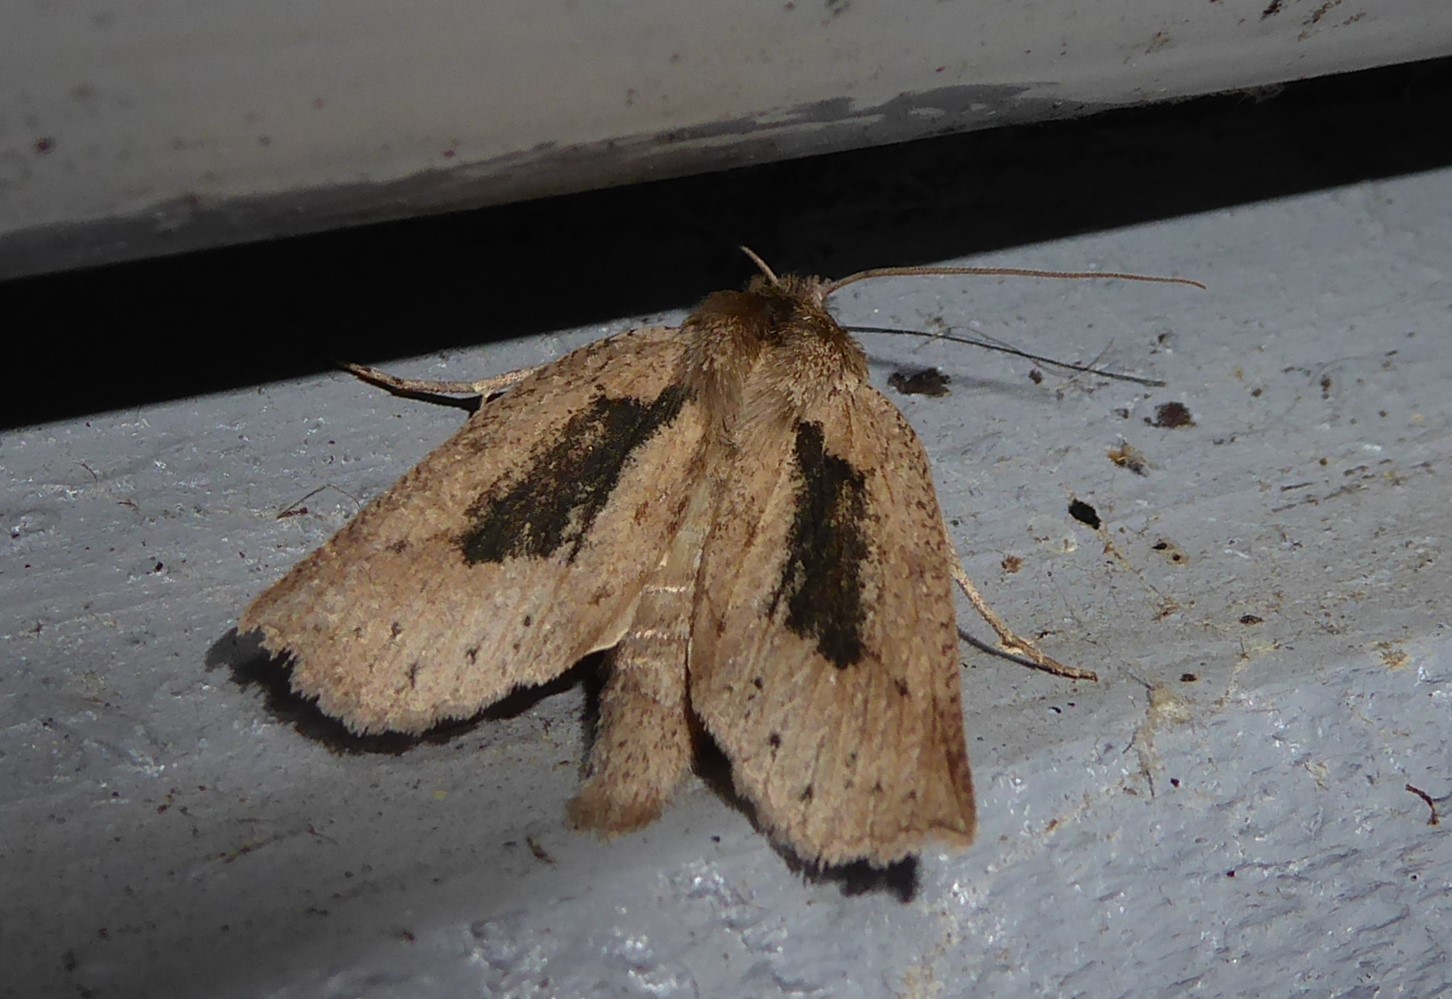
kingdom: Animalia
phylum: Arthropoda
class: Insecta
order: Lepidoptera
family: Geometridae
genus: Declana
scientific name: Declana leptomera
